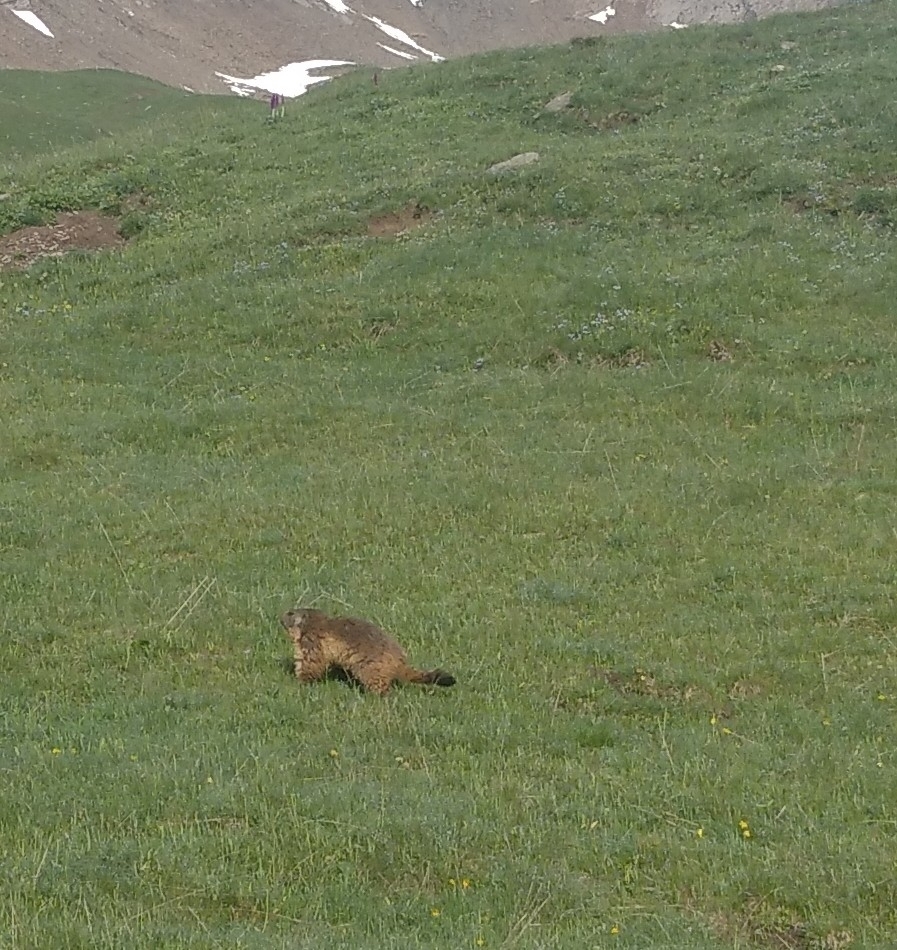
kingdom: Animalia
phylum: Chordata
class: Mammalia
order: Rodentia
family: Sciuridae
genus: Marmota
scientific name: Marmota marmota
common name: Alpine marmot
